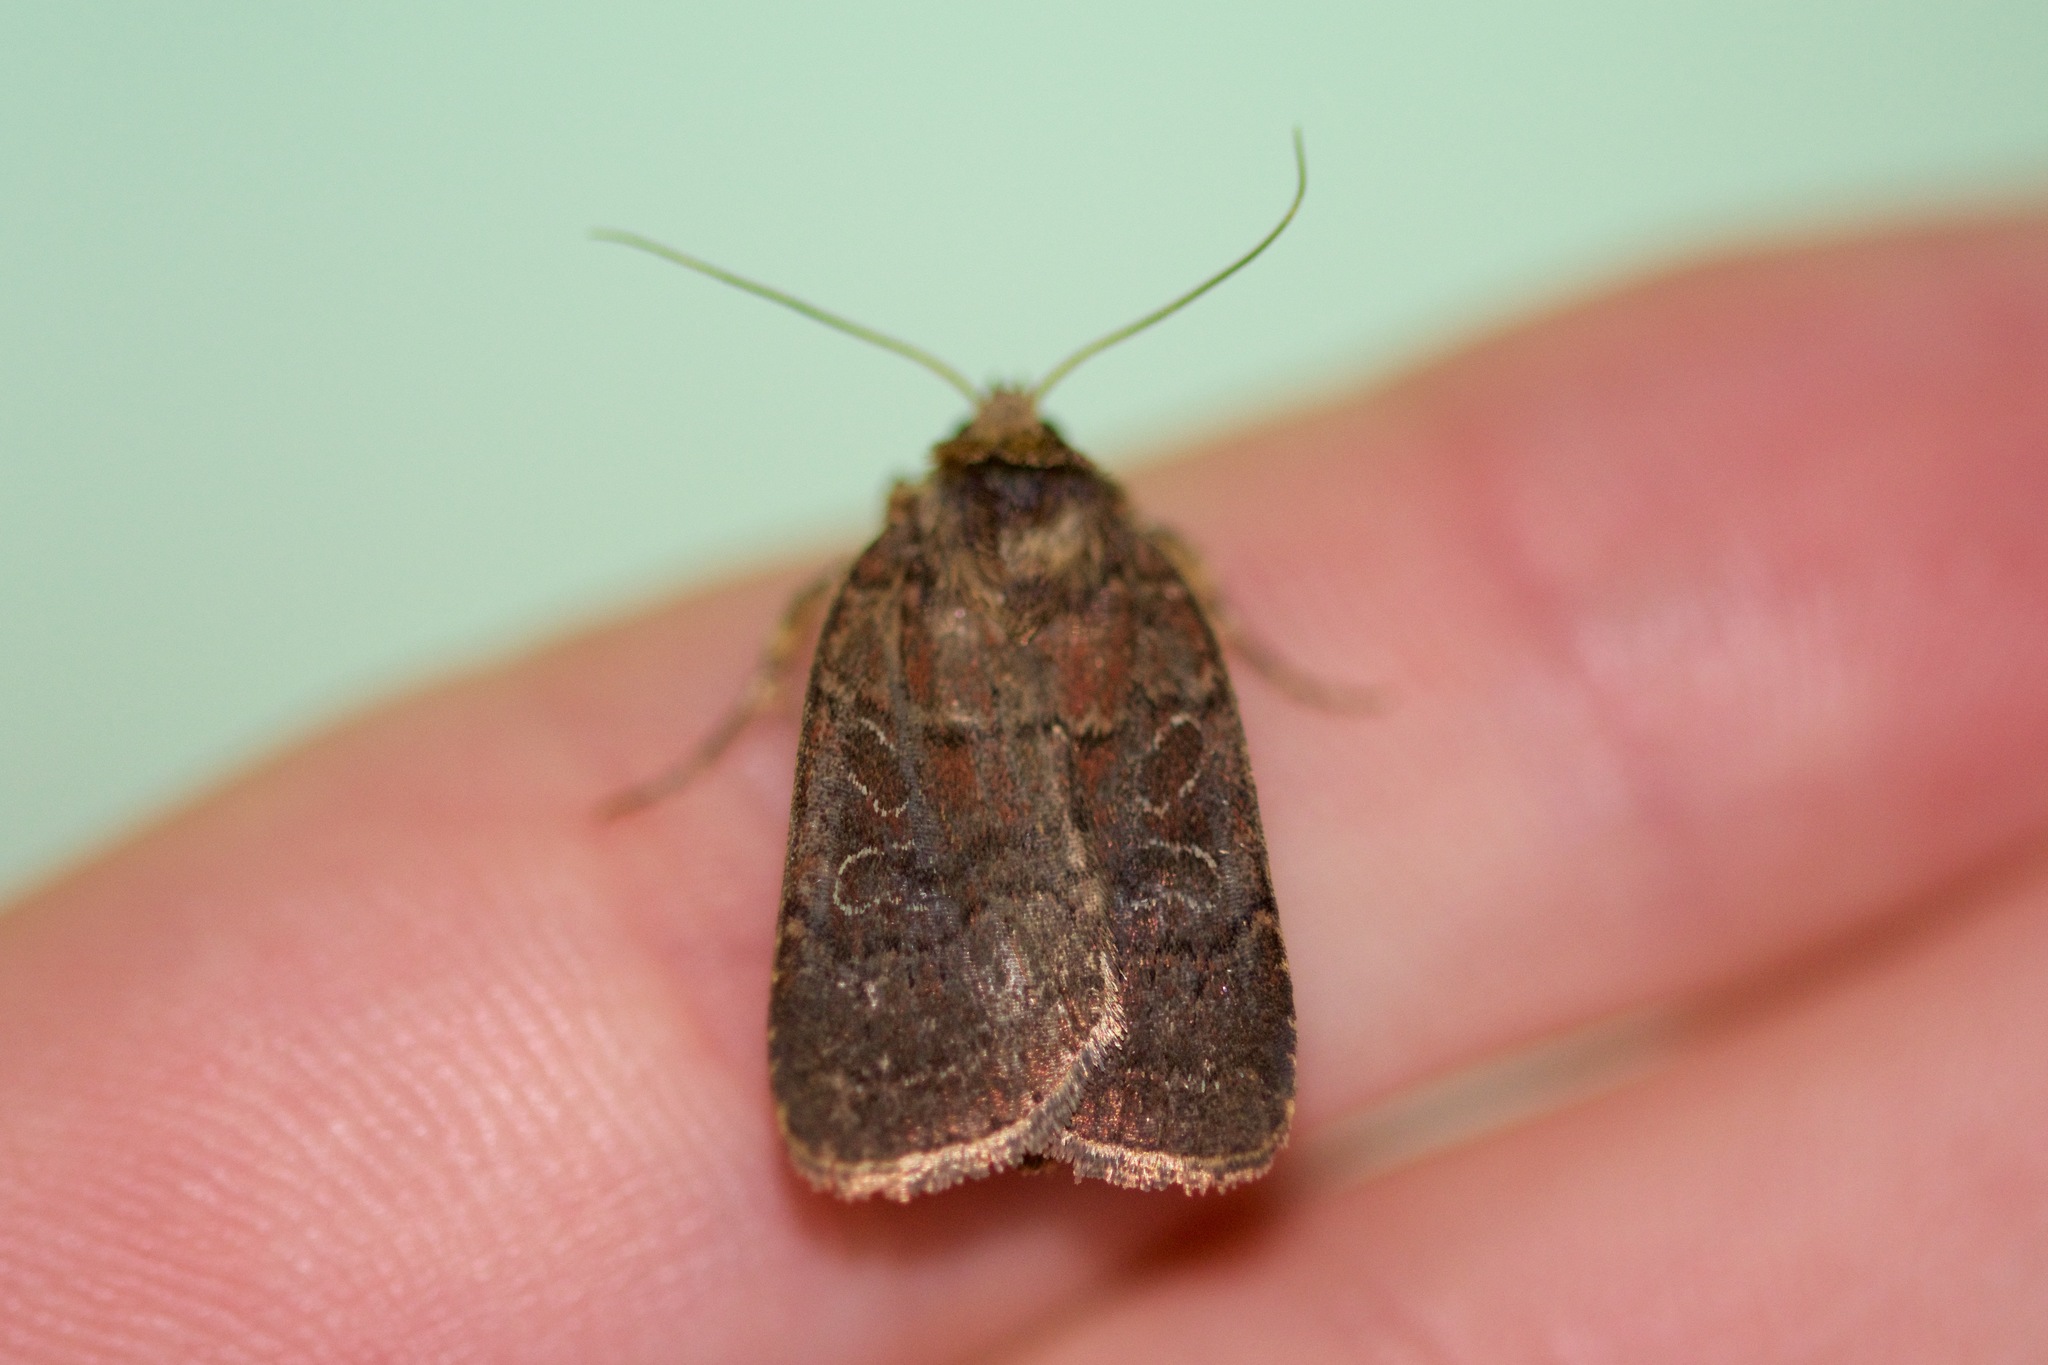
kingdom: Animalia
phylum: Arthropoda
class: Insecta
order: Lepidoptera
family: Noctuidae
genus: Orthodes
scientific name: Orthodes cynica
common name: Cynical quaker
